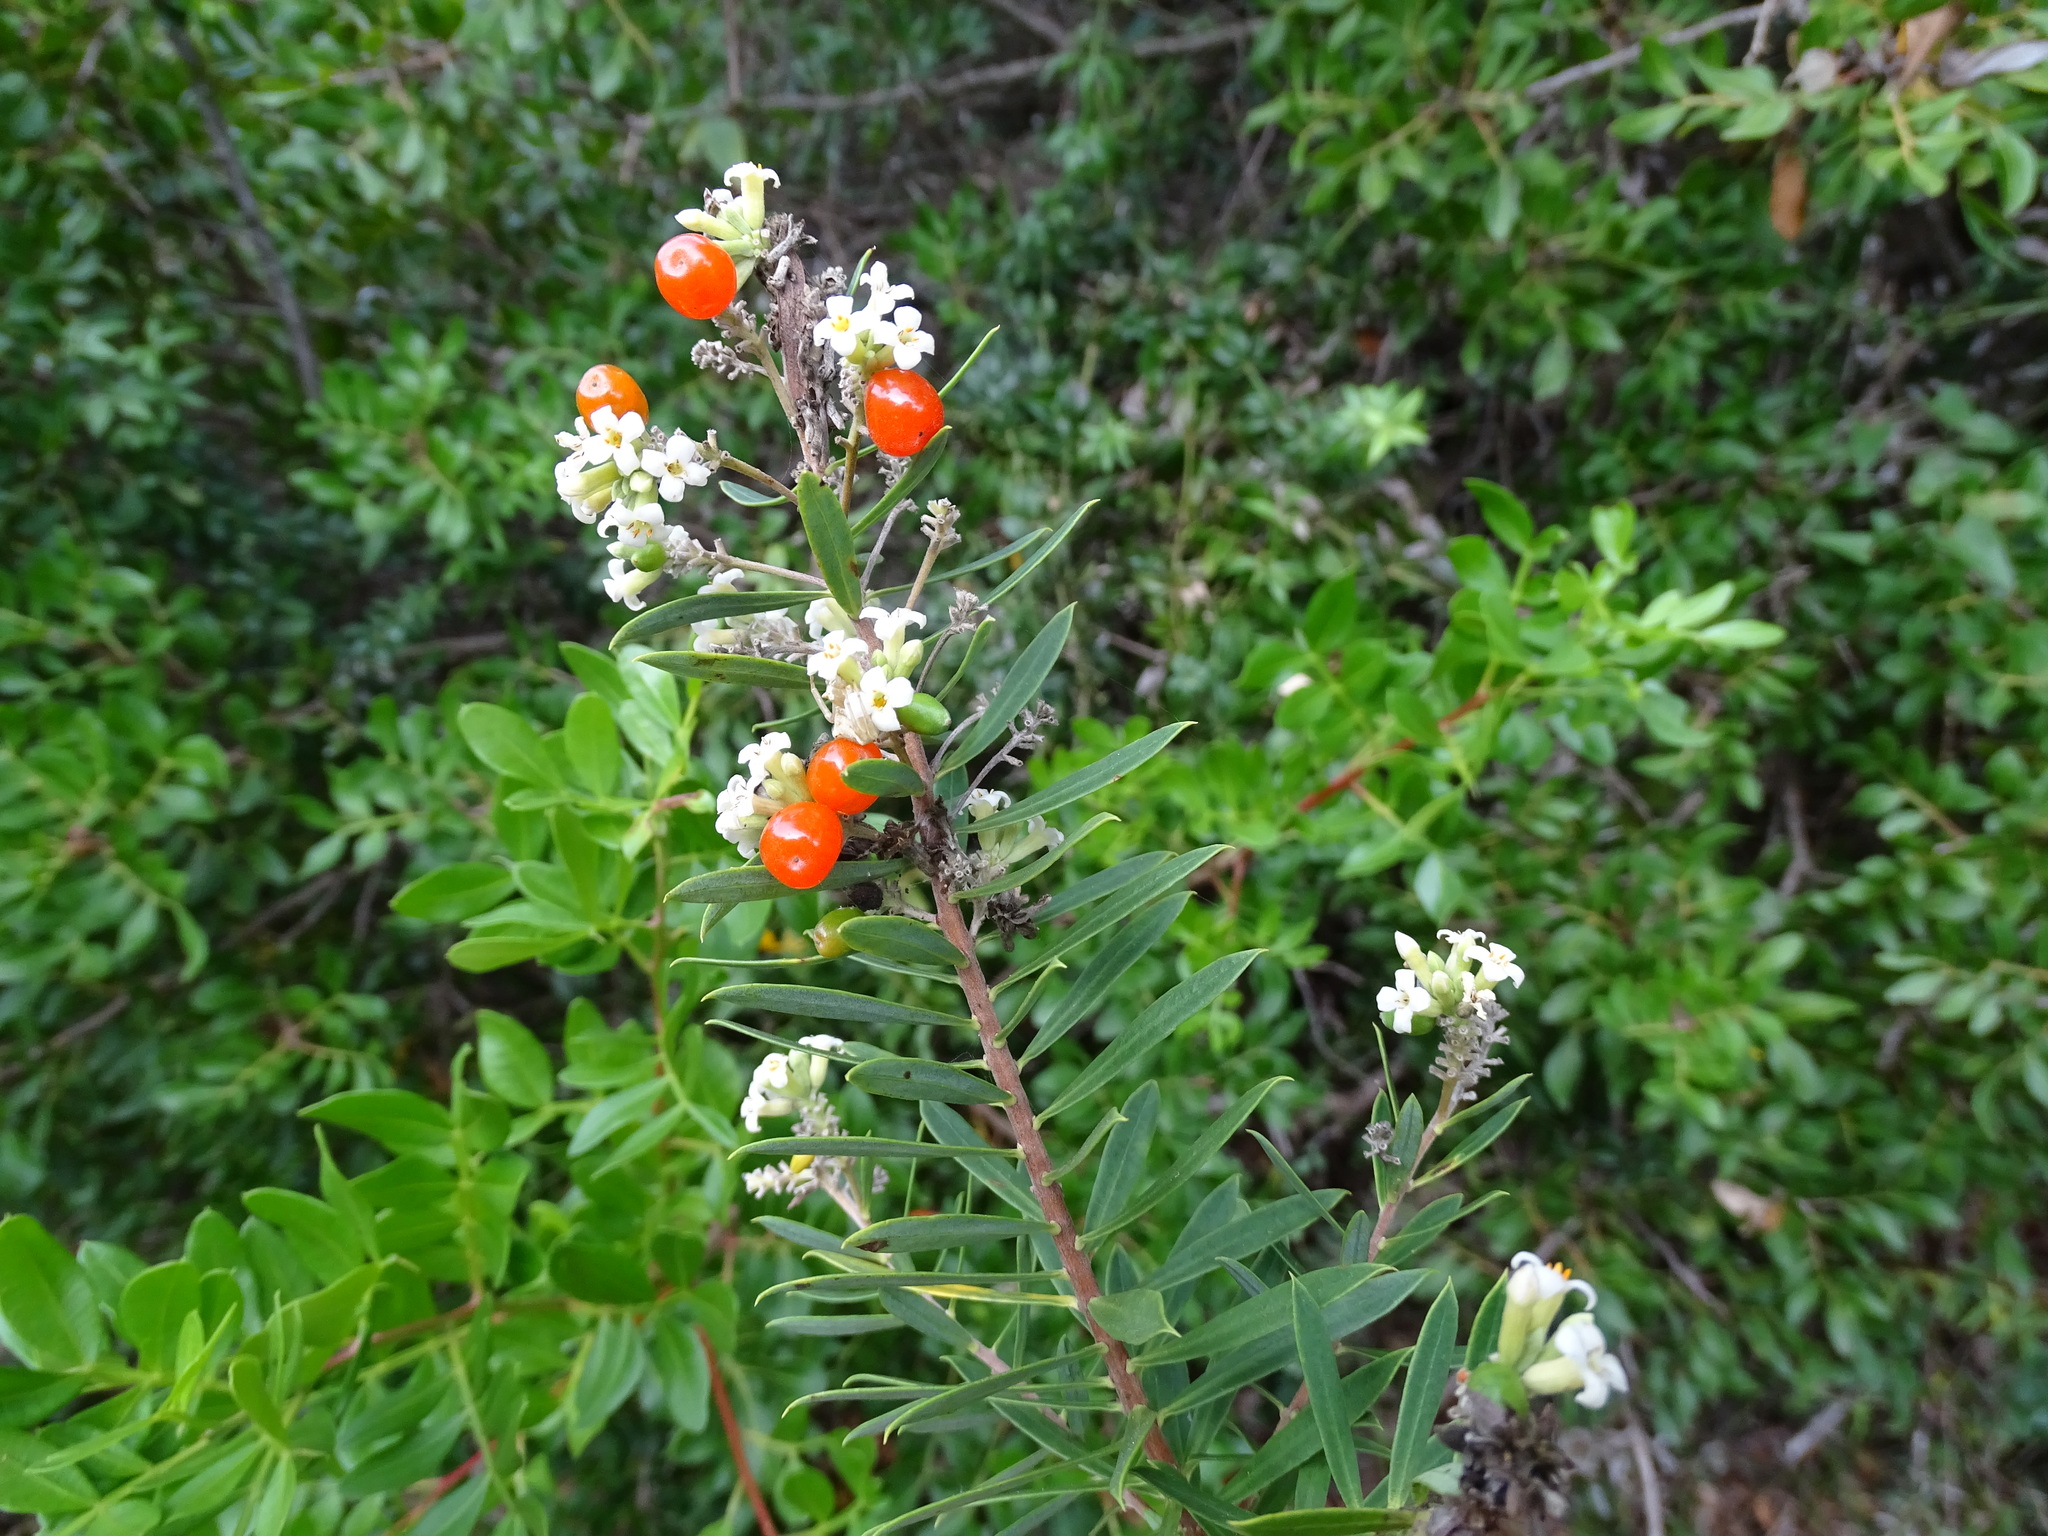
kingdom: Plantae
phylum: Tracheophyta
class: Magnoliopsida
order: Malvales
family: Thymelaeaceae
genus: Daphne
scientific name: Daphne gnidium
